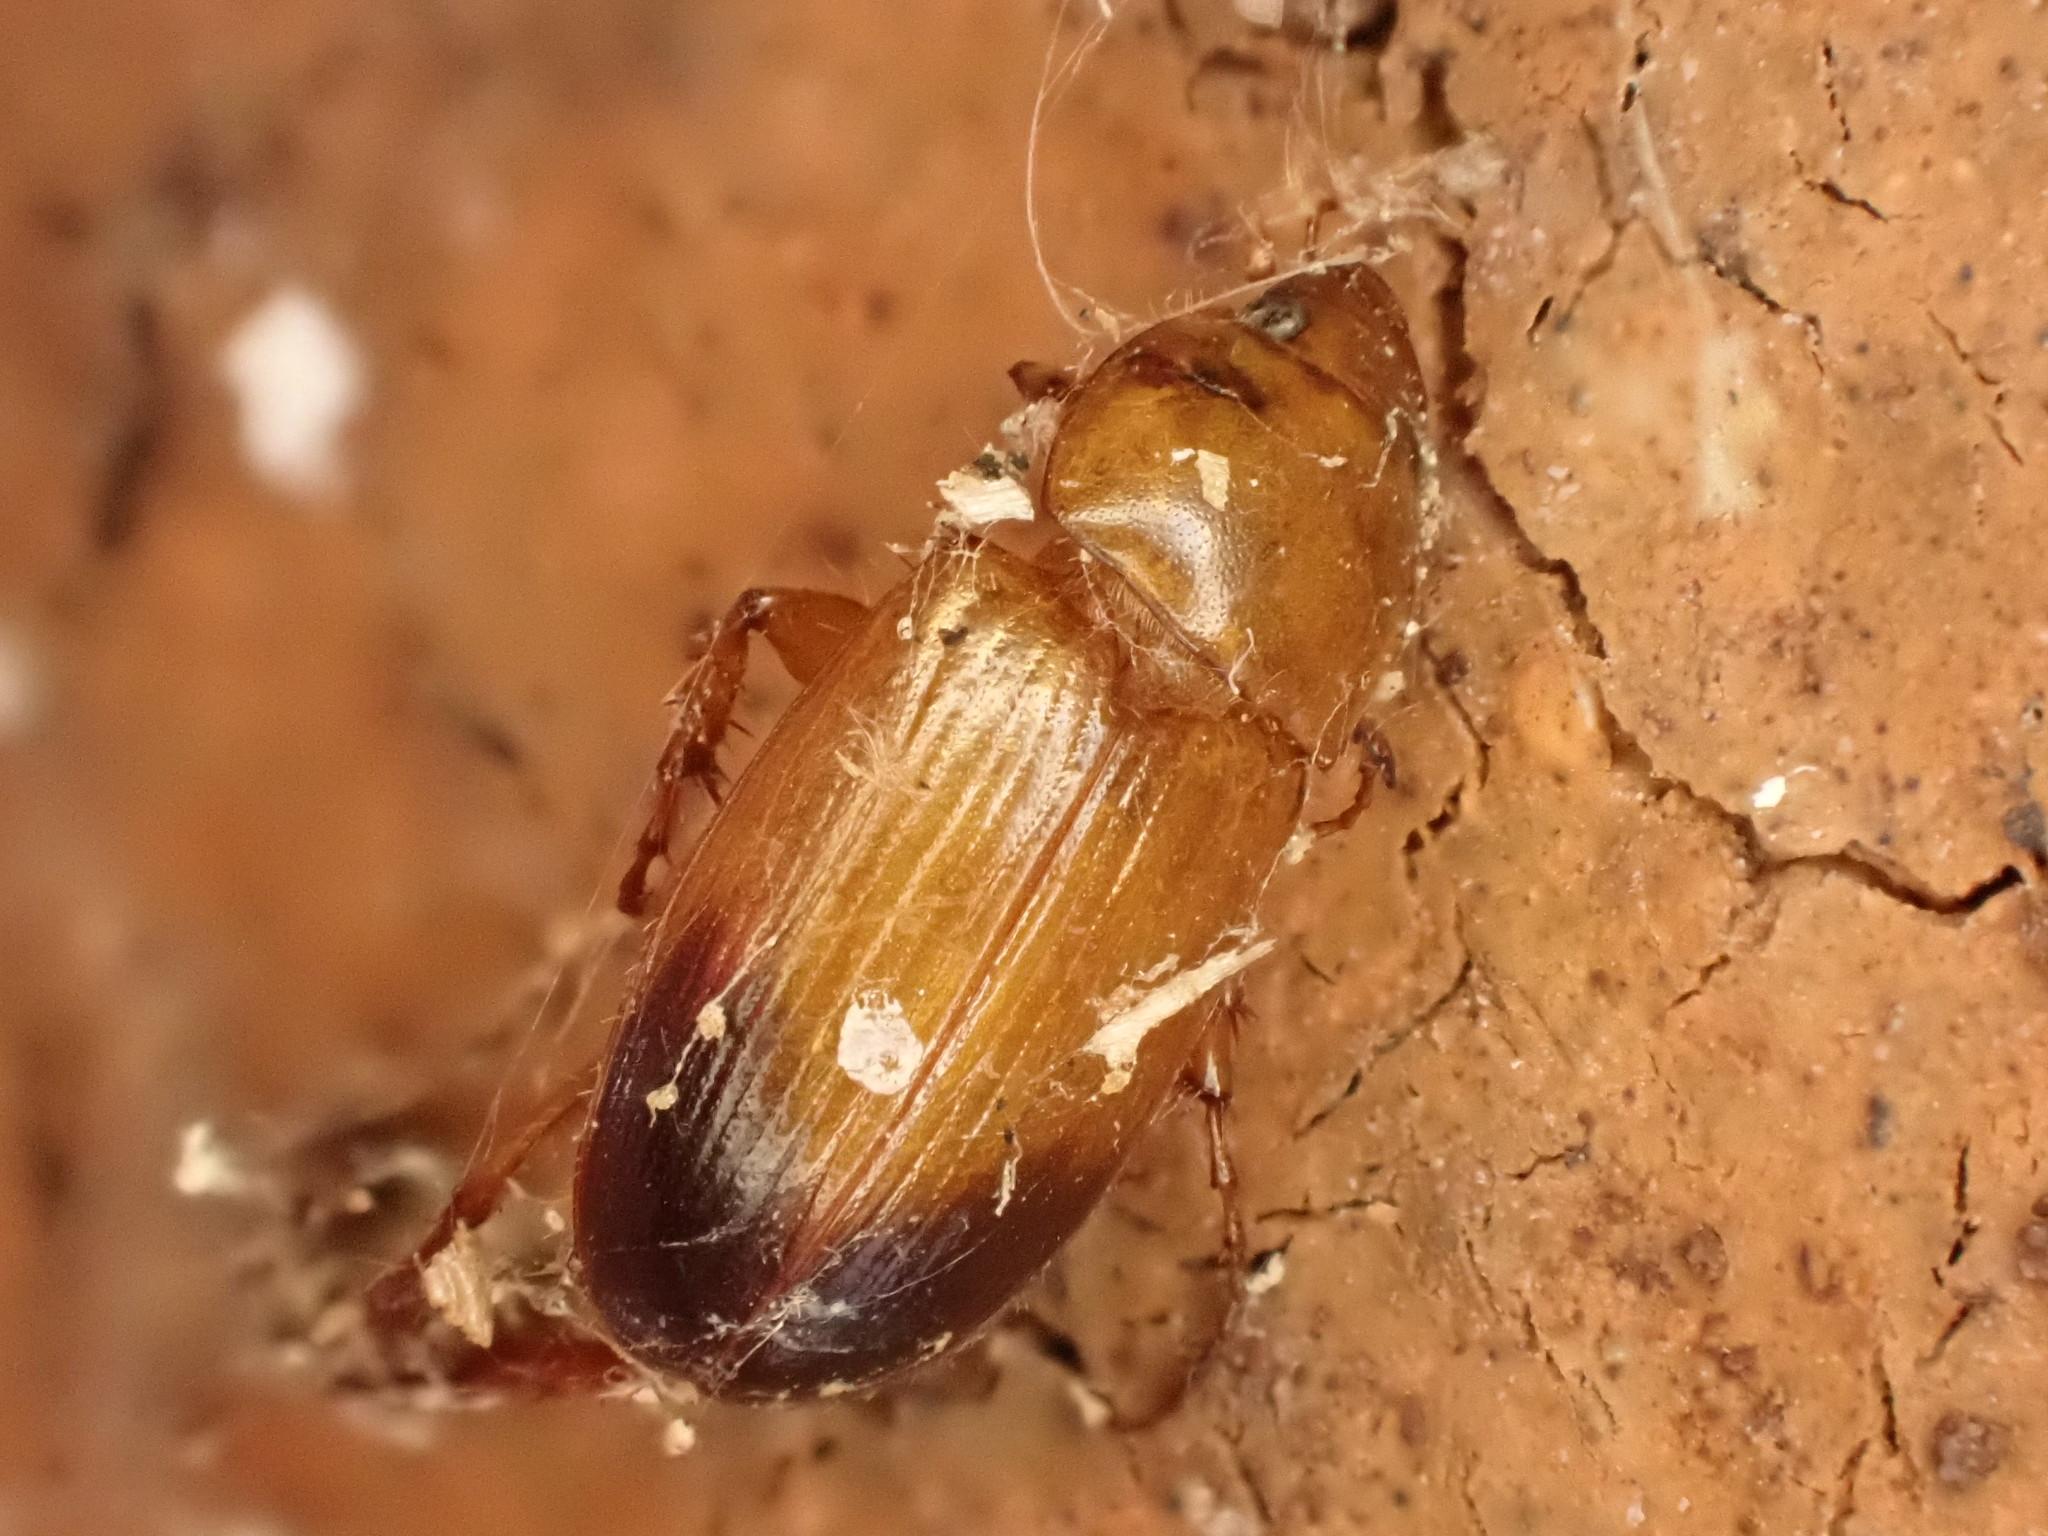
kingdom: Animalia
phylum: Arthropoda
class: Insecta
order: Coleoptera
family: Scarabaeidae
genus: Phyllotocus
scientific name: Phyllotocus macleayi
